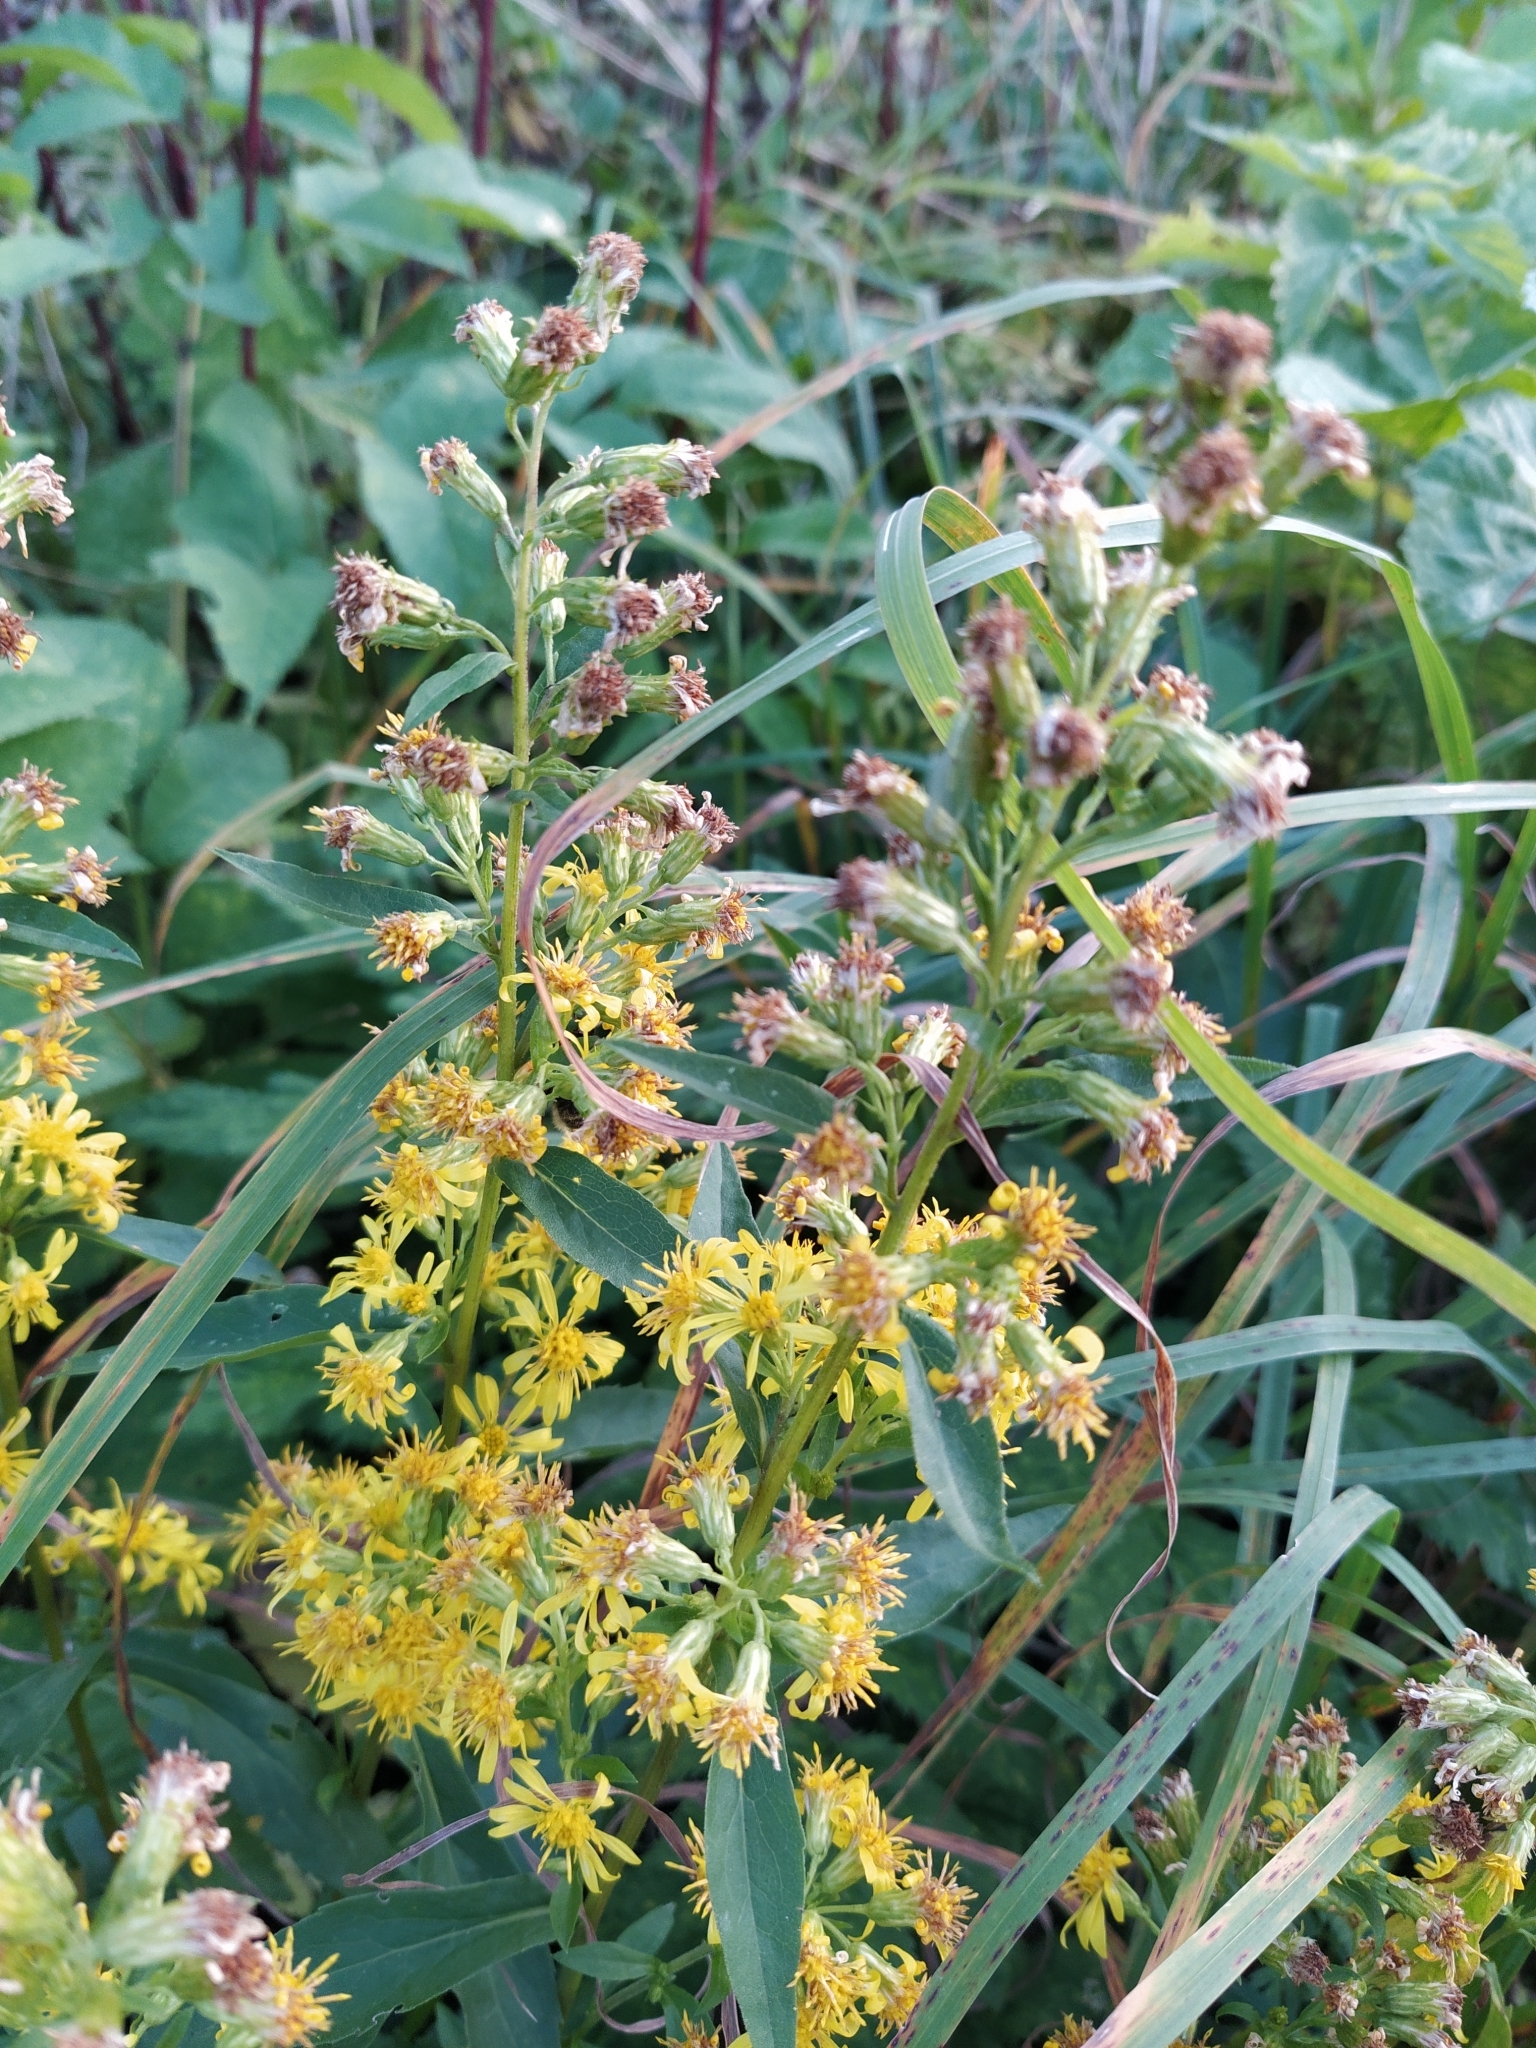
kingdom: Plantae
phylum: Tracheophyta
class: Magnoliopsida
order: Asterales
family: Asteraceae
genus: Solidago
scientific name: Solidago virgaurea
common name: Goldenrod
